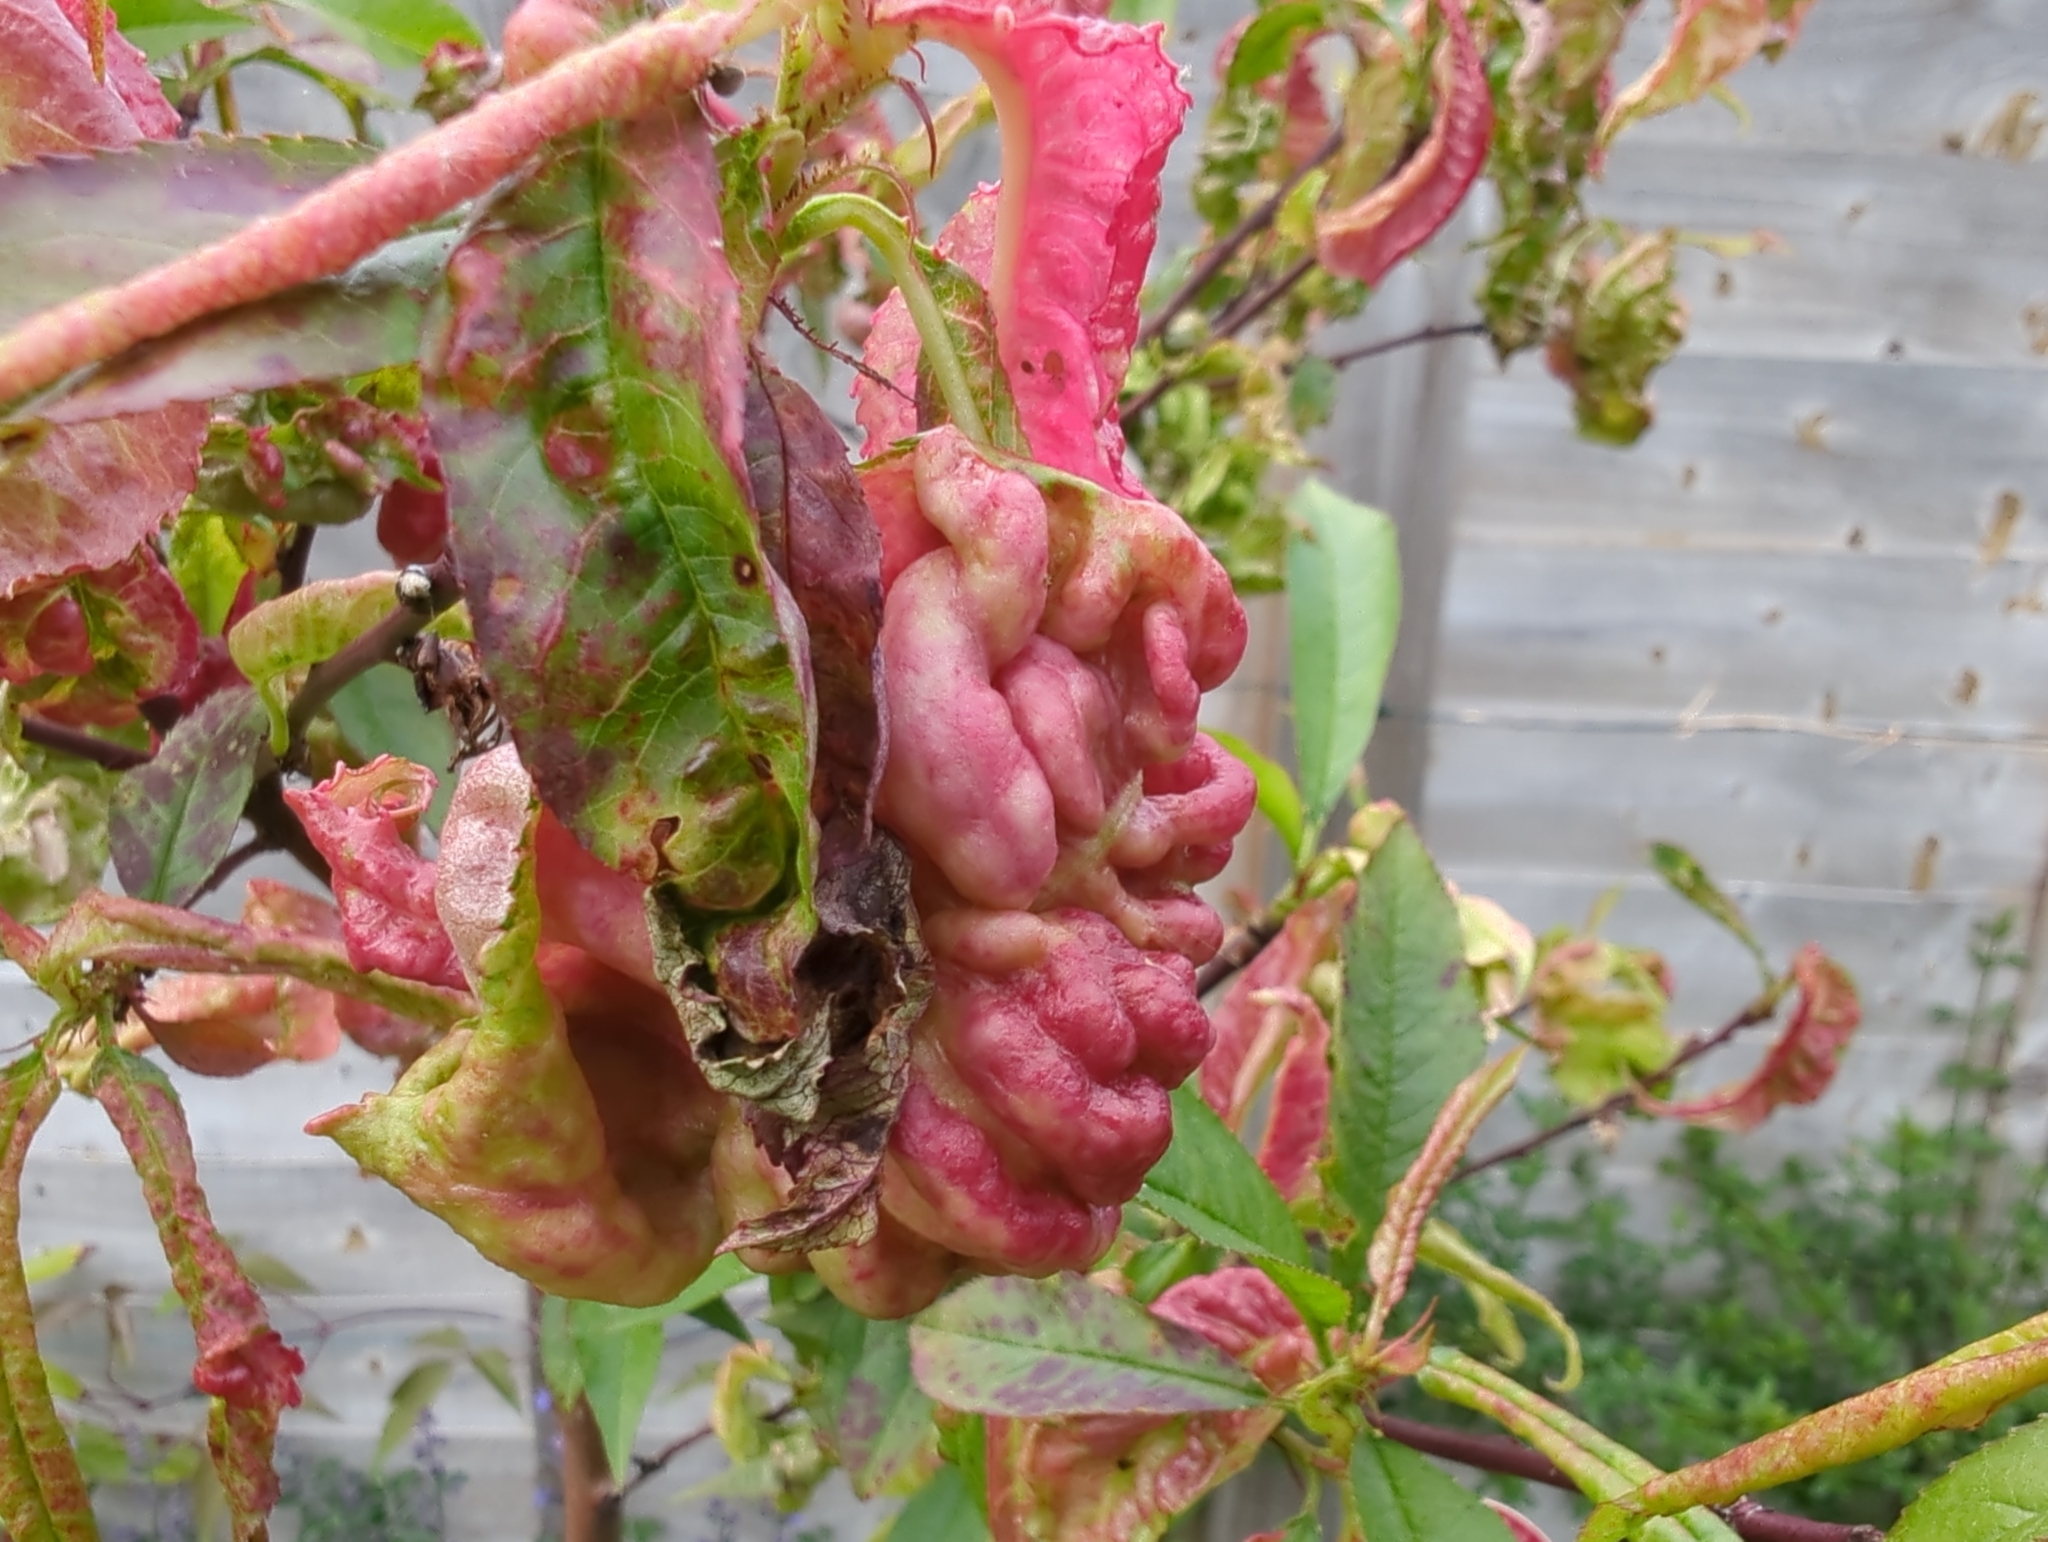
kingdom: Fungi
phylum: Ascomycota
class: Taphrinomycetes
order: Taphrinales
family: Taphrinaceae
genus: Taphrina
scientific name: Taphrina deformans
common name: Peach leaf curl
